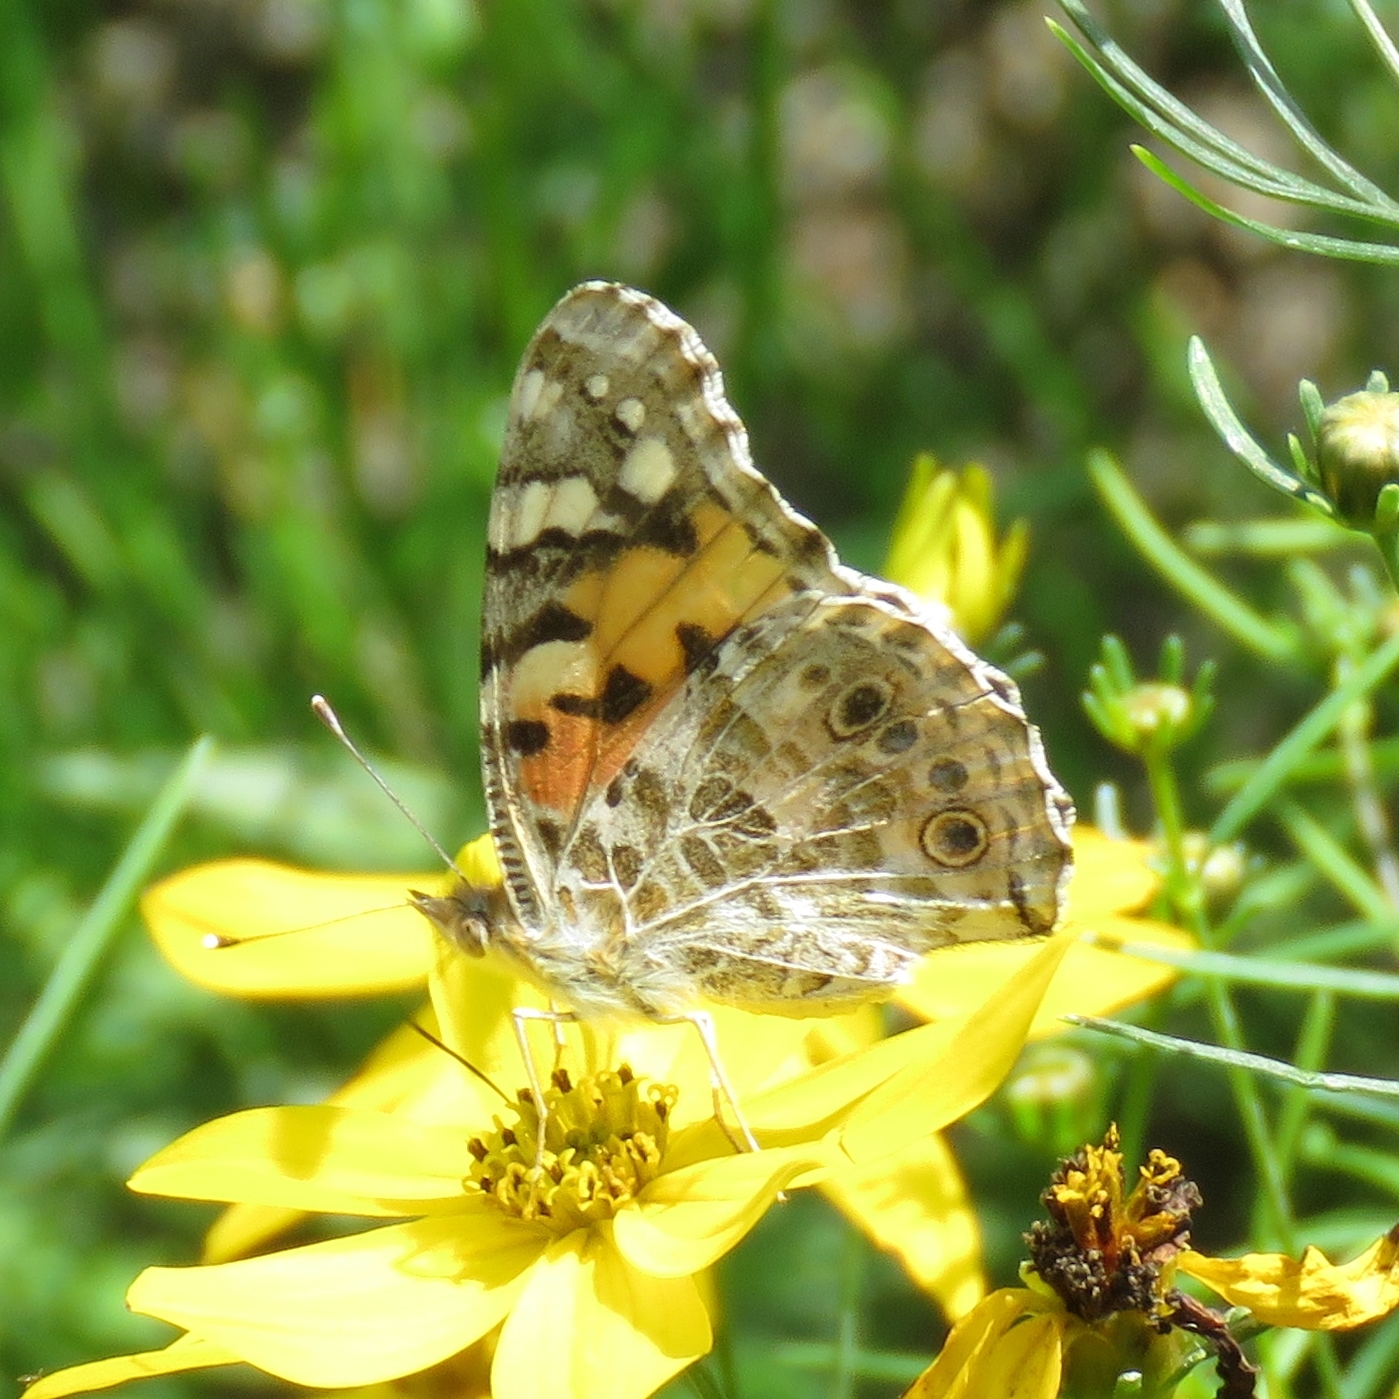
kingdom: Animalia
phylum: Arthropoda
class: Insecta
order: Lepidoptera
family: Nymphalidae
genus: Vanessa
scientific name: Vanessa cardui
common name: Painted lady
